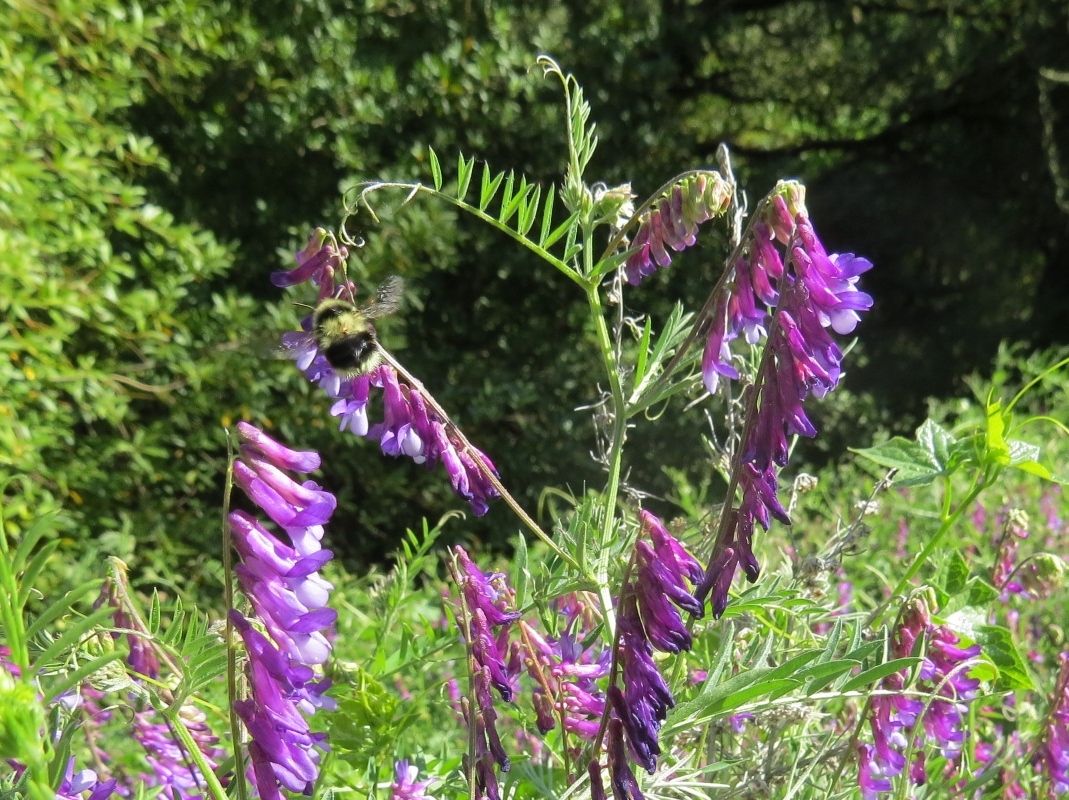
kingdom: Animalia
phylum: Arthropoda
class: Insecta
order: Hymenoptera
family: Apidae
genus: Bombus
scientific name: Bombus melanopygus
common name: Black tail bumble bee
